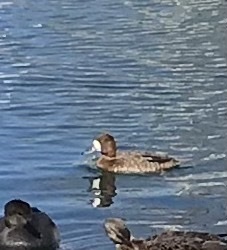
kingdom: Animalia
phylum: Chordata
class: Aves
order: Anseriformes
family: Anatidae
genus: Aythya
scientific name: Aythya affinis
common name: Lesser scaup
